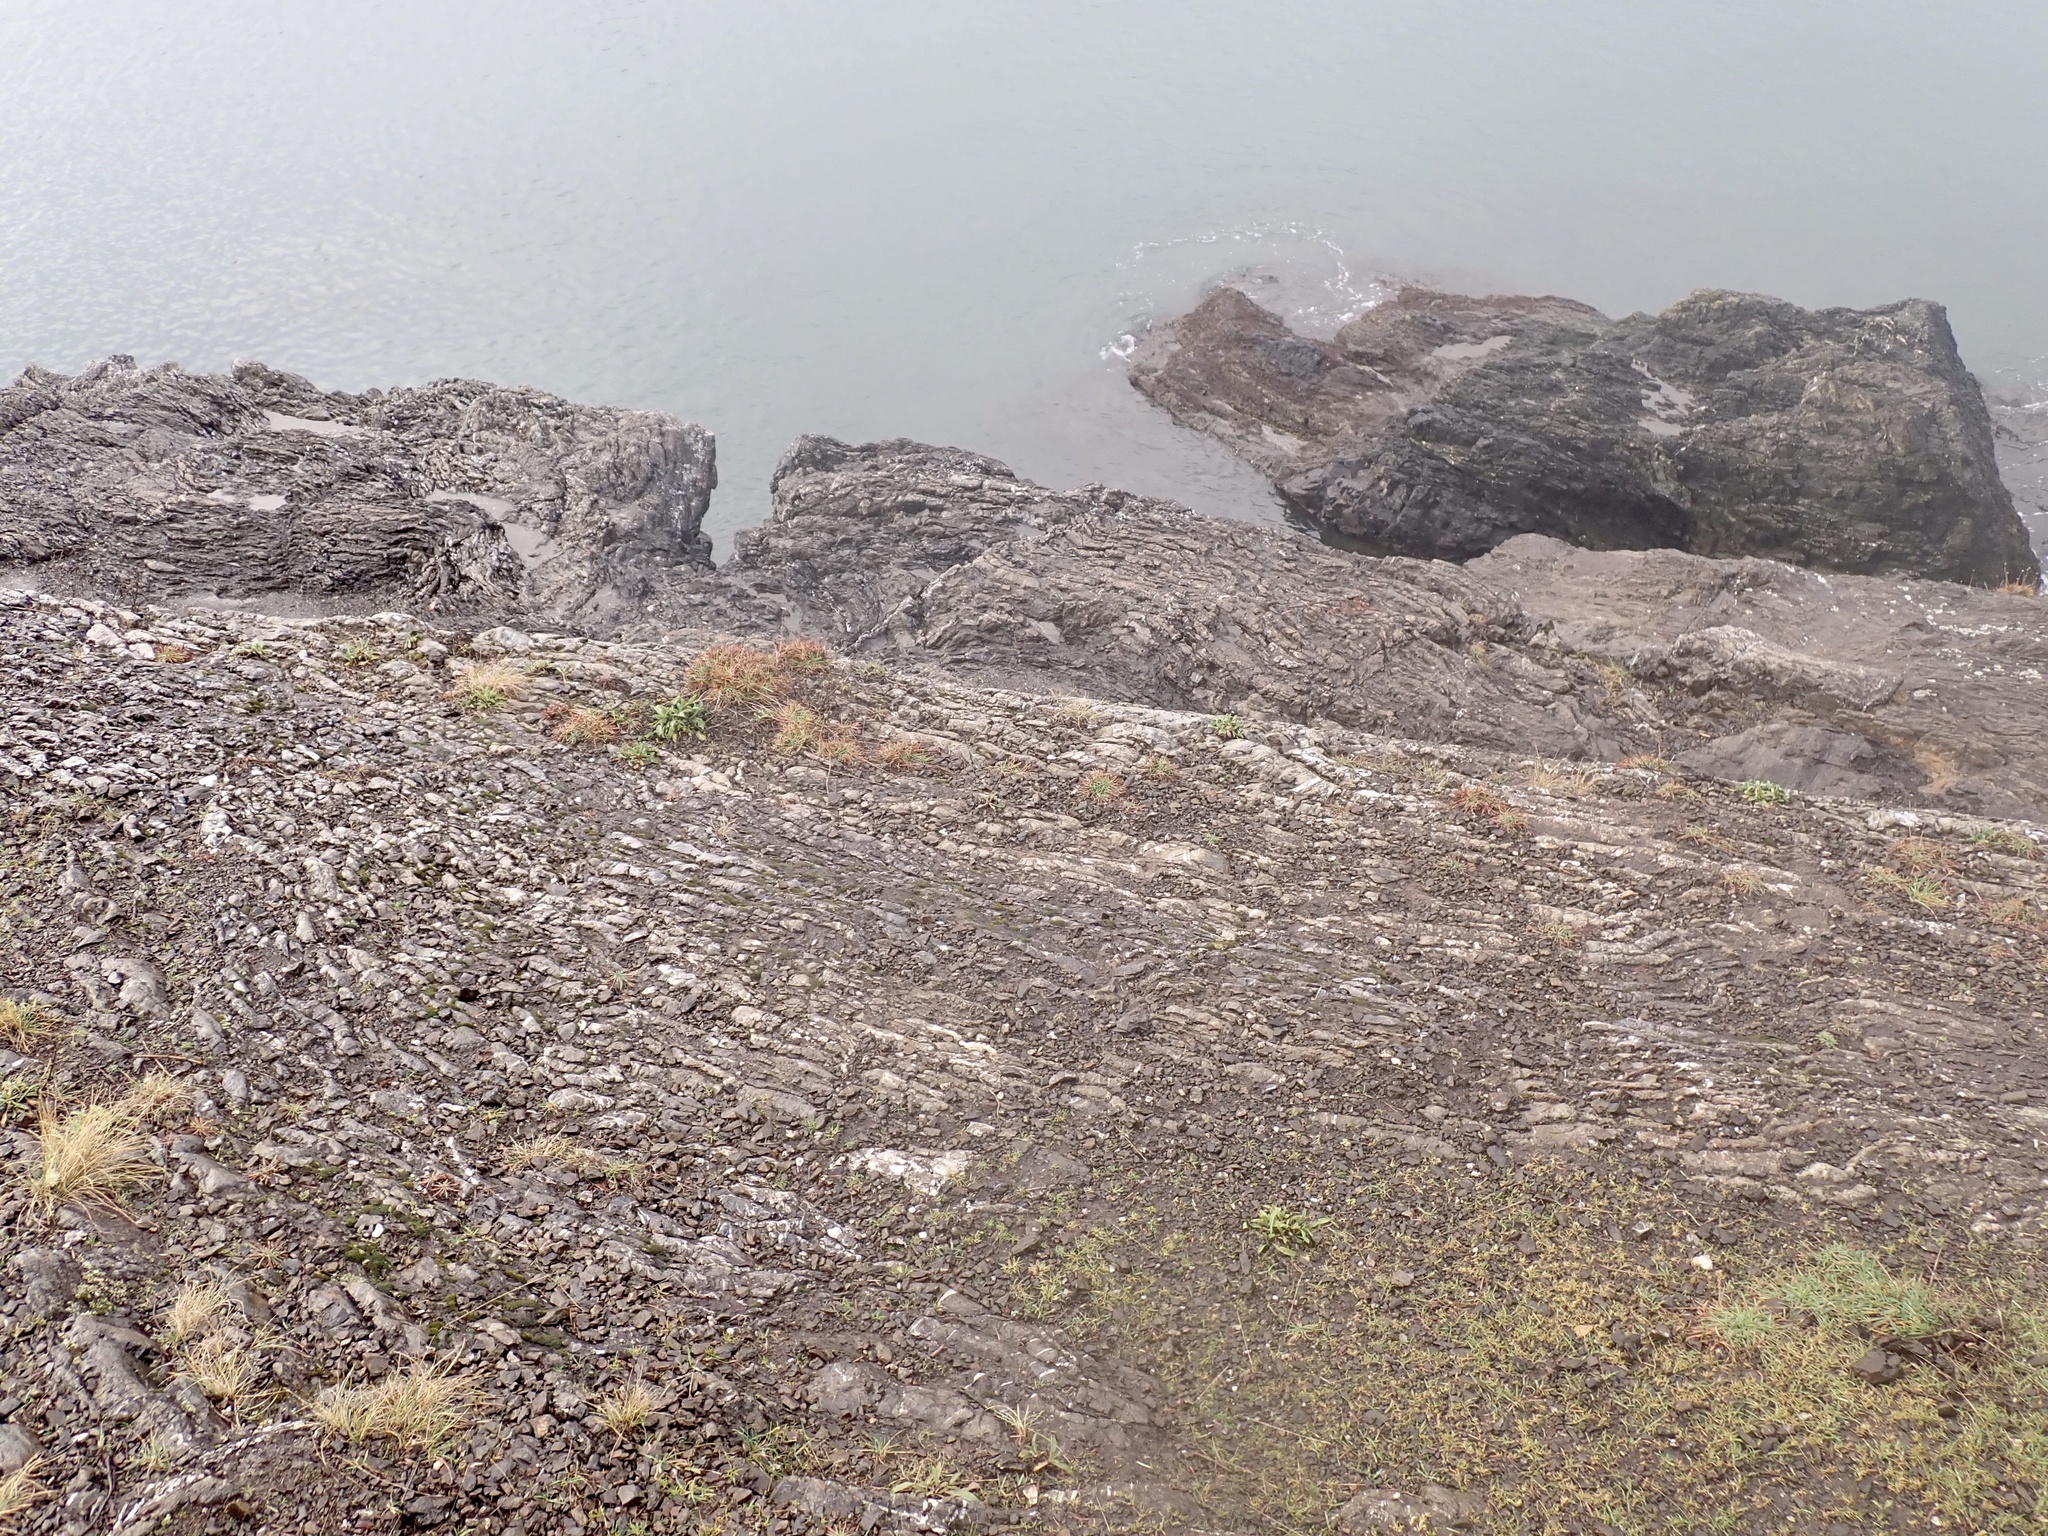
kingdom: Plantae
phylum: Tracheophyta
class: Magnoliopsida
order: Caryophyllales
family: Plumbaginaceae
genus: Armeria
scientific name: Armeria maritima
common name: Thrift
